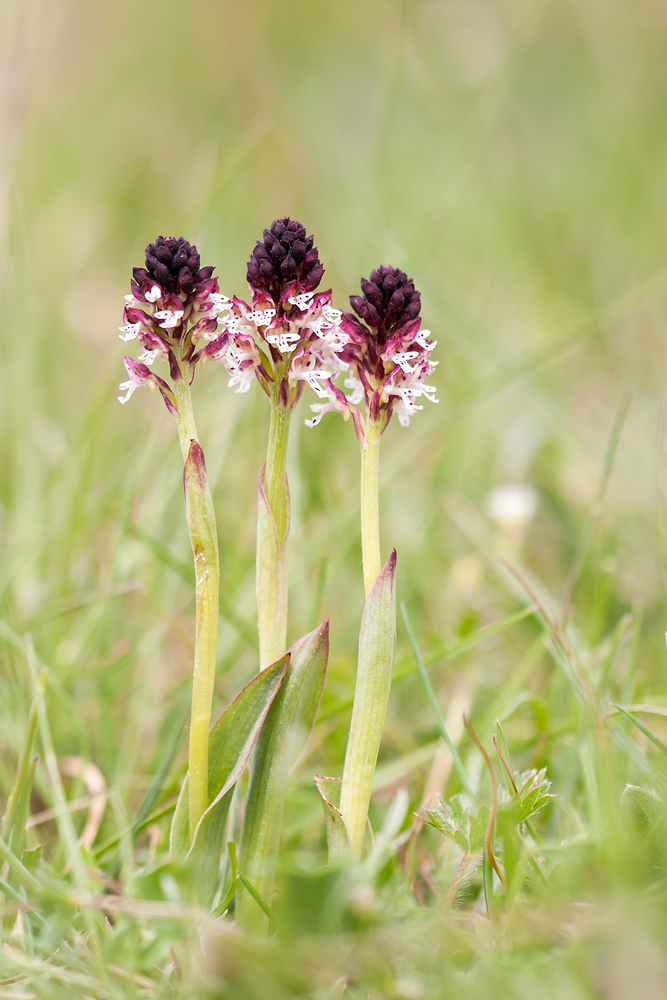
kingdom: Plantae
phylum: Tracheophyta
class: Liliopsida
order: Asparagales
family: Orchidaceae
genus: Neotinea
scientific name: Neotinea ustulata
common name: Burnt orchid
